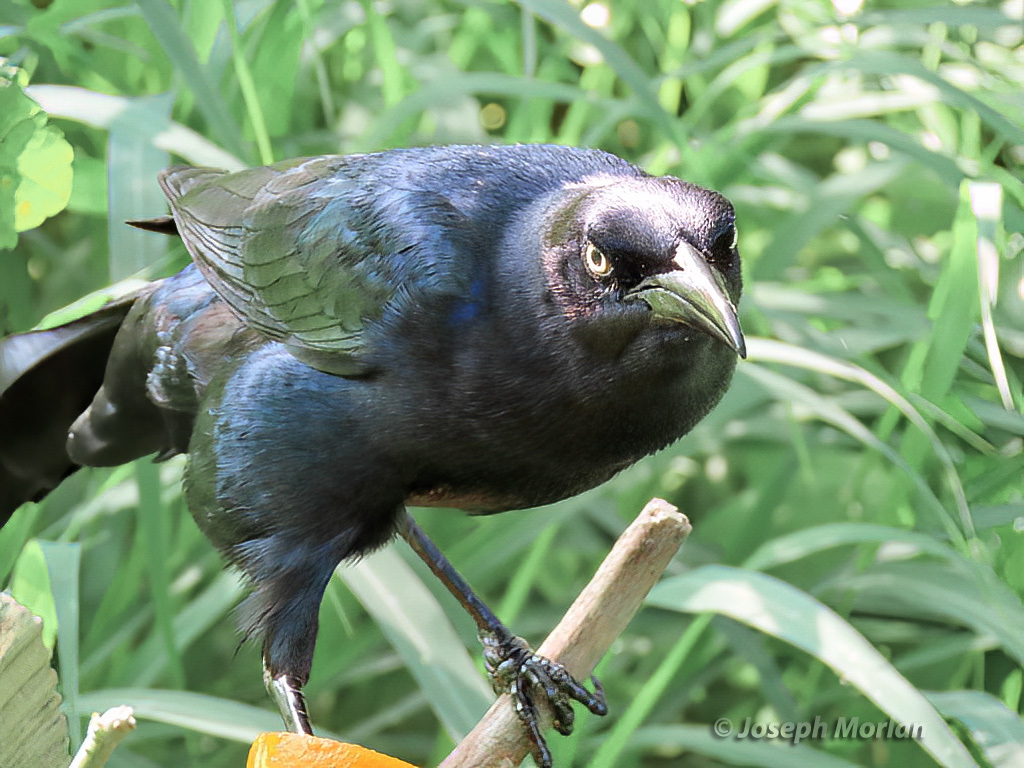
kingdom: Animalia
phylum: Chordata
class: Aves
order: Passeriformes
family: Icteridae
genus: Quiscalus
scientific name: Quiscalus mexicanus
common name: Great-tailed grackle
